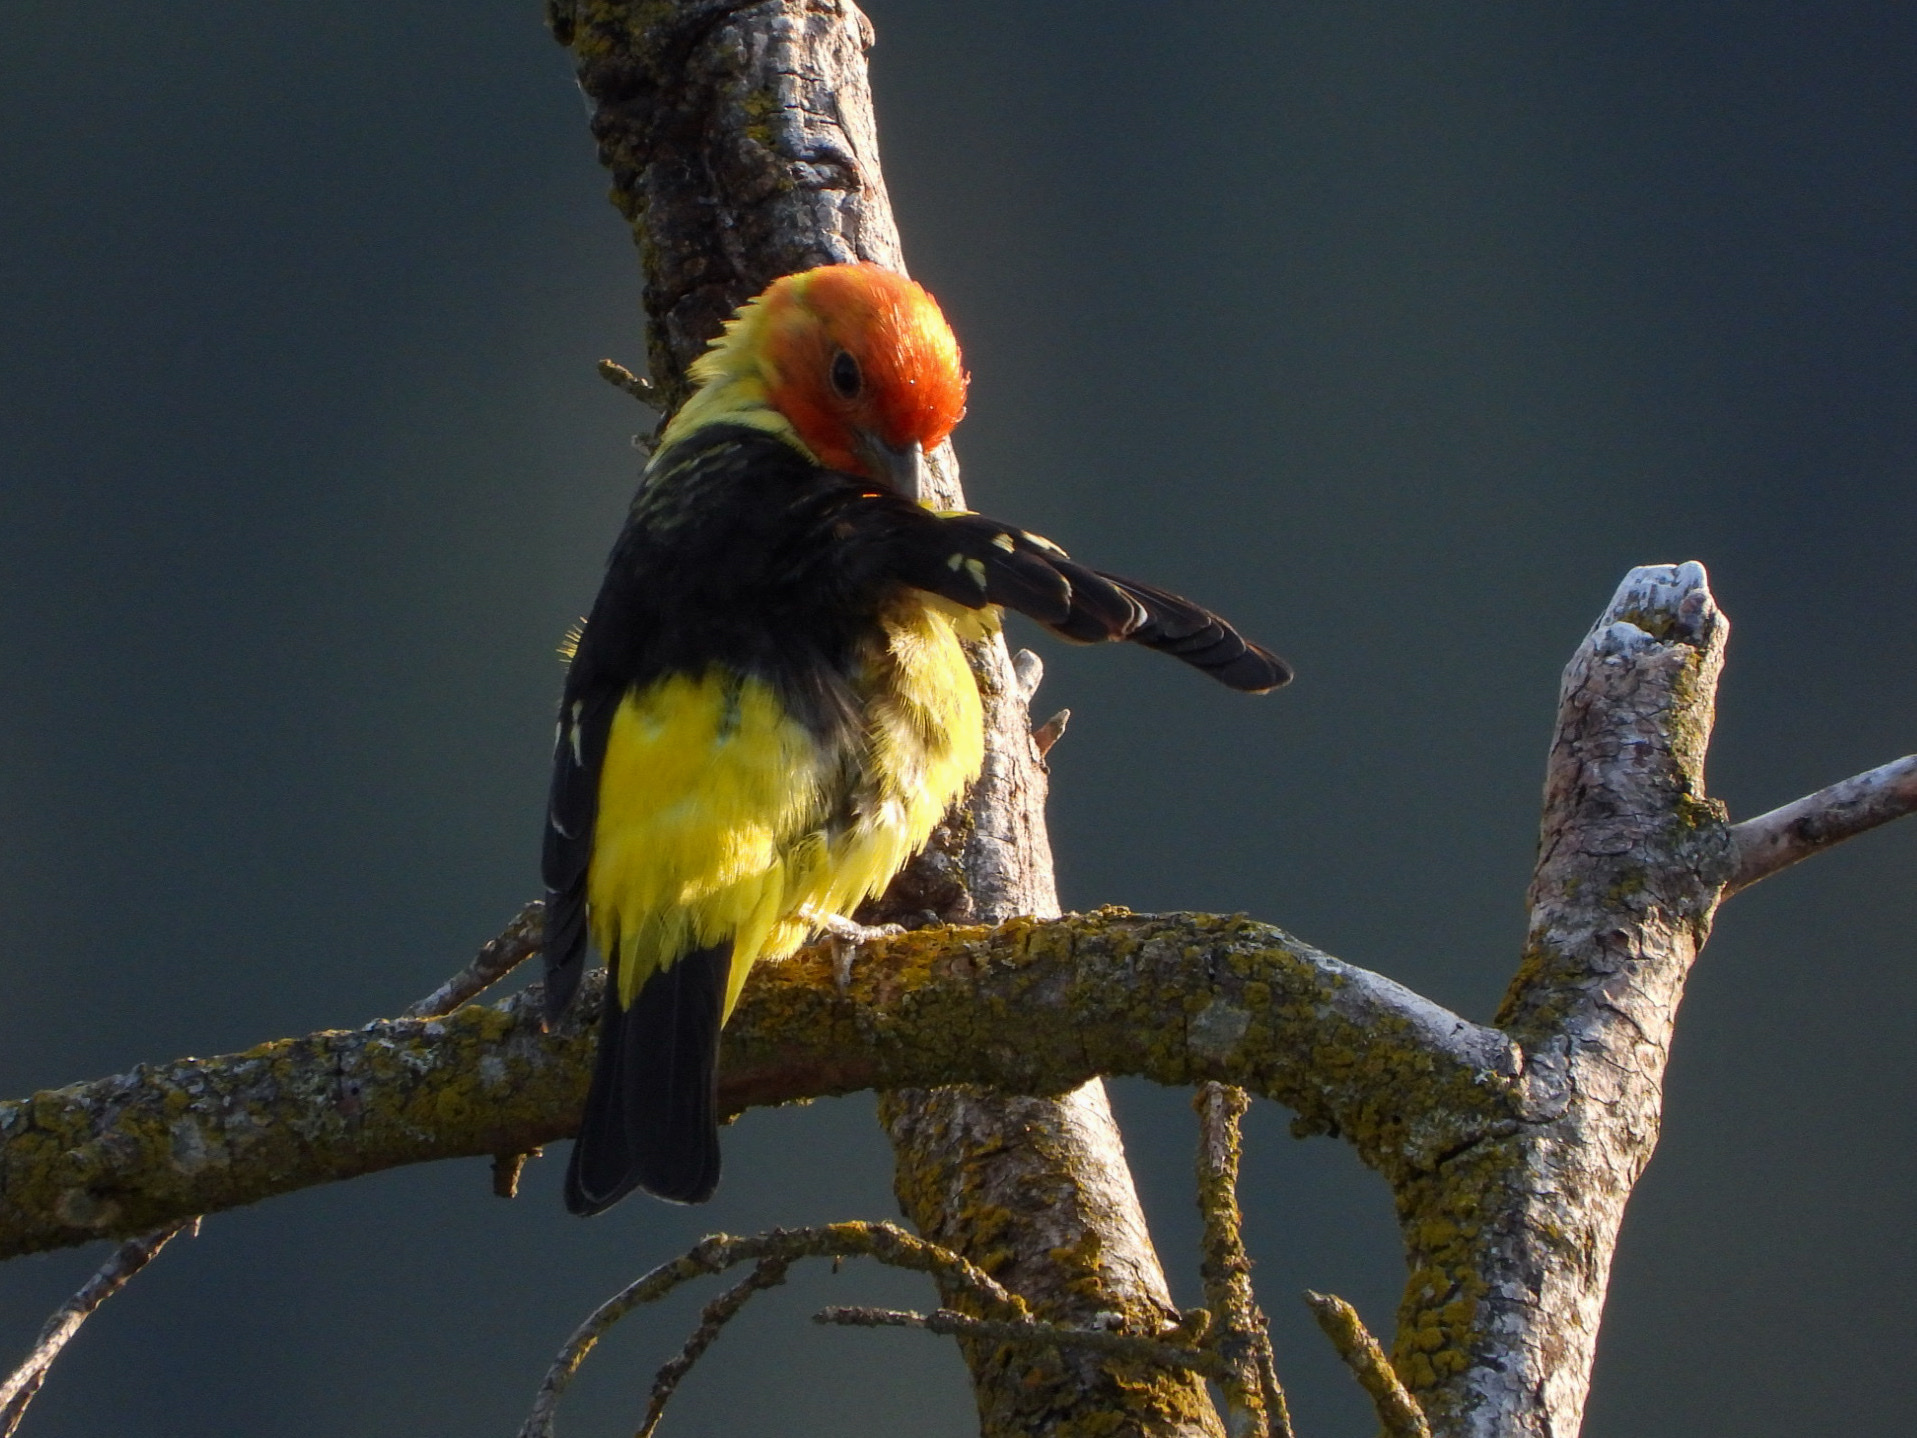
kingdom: Animalia
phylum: Chordata
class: Aves
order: Passeriformes
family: Cardinalidae
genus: Piranga
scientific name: Piranga ludoviciana
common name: Western tanager
